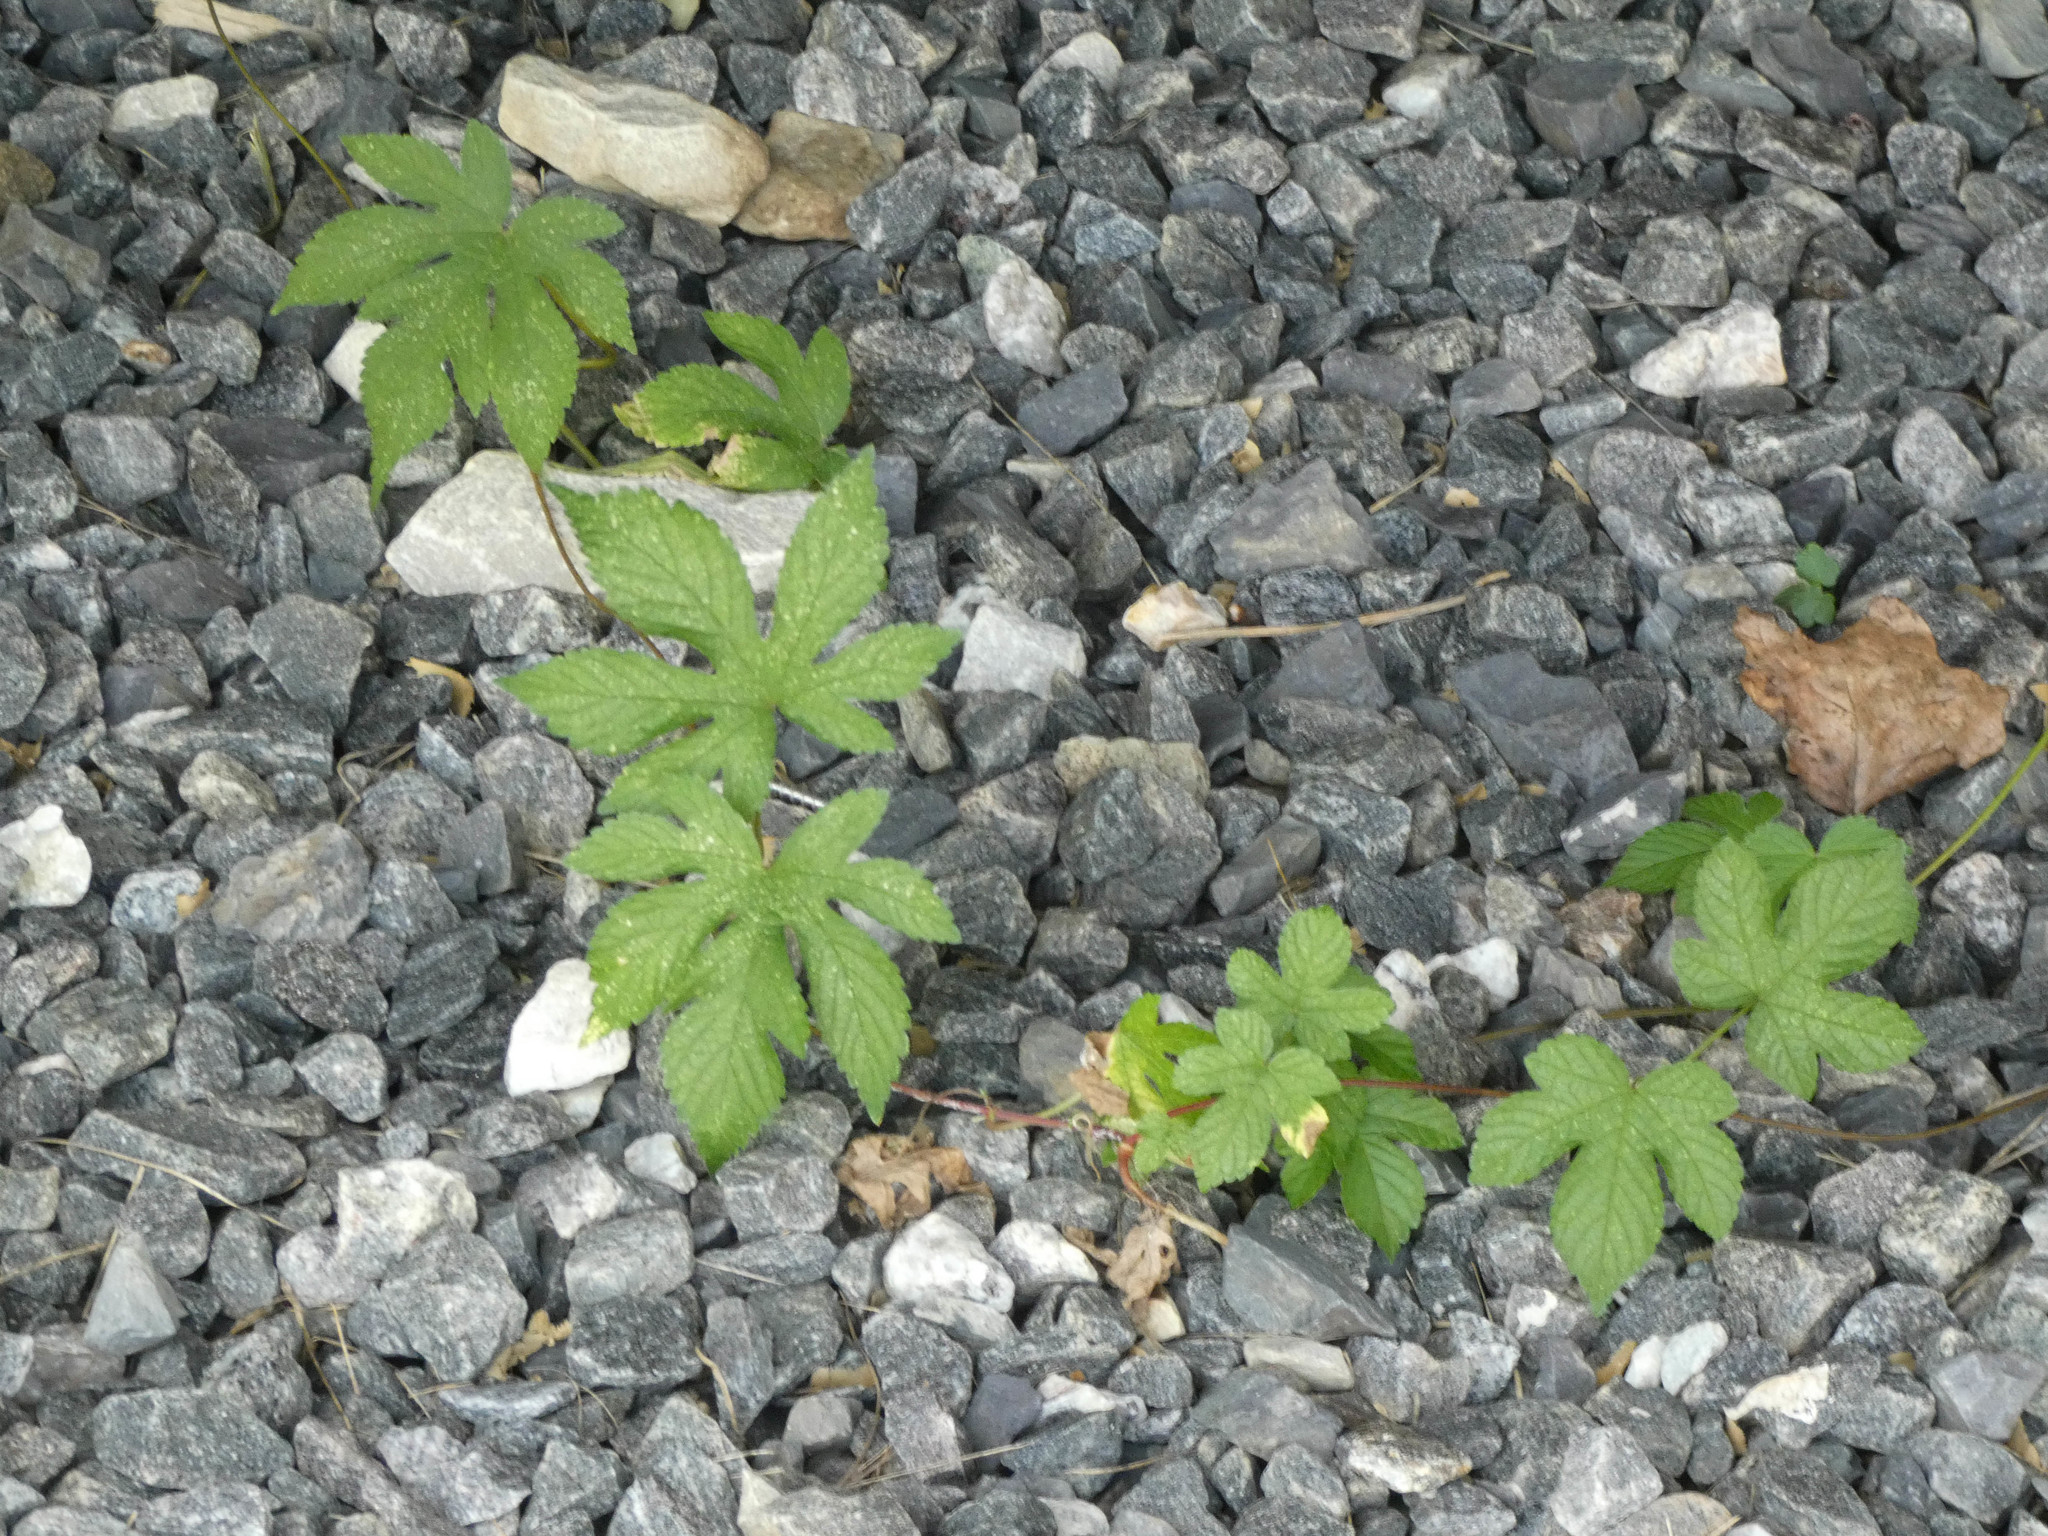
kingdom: Plantae
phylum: Tracheophyta
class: Magnoliopsida
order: Rosales
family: Cannabaceae
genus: Humulus
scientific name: Humulus scandens
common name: Japanese hop
